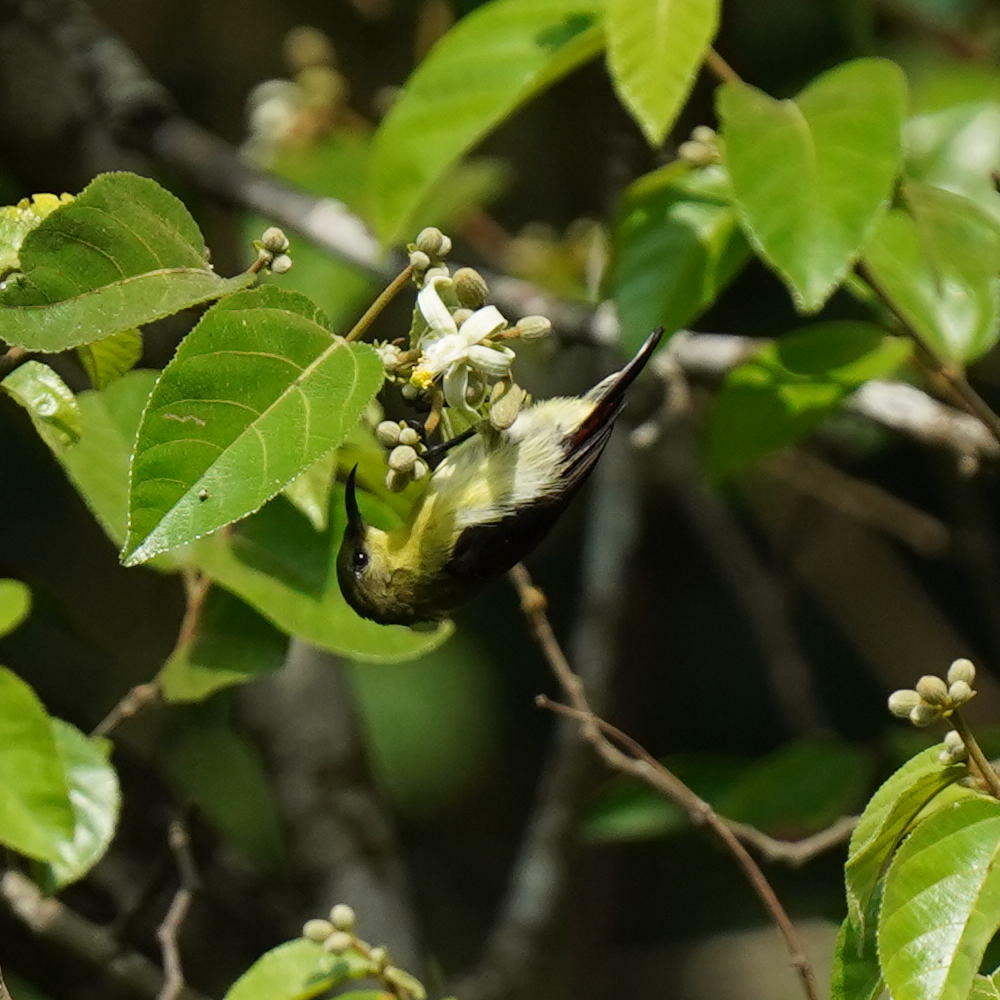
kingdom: Animalia
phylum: Chordata
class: Aves
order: Passeriformes
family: Nectariniidae
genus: Leptocoma
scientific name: Leptocoma minima
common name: Crimson-backed sunbird
